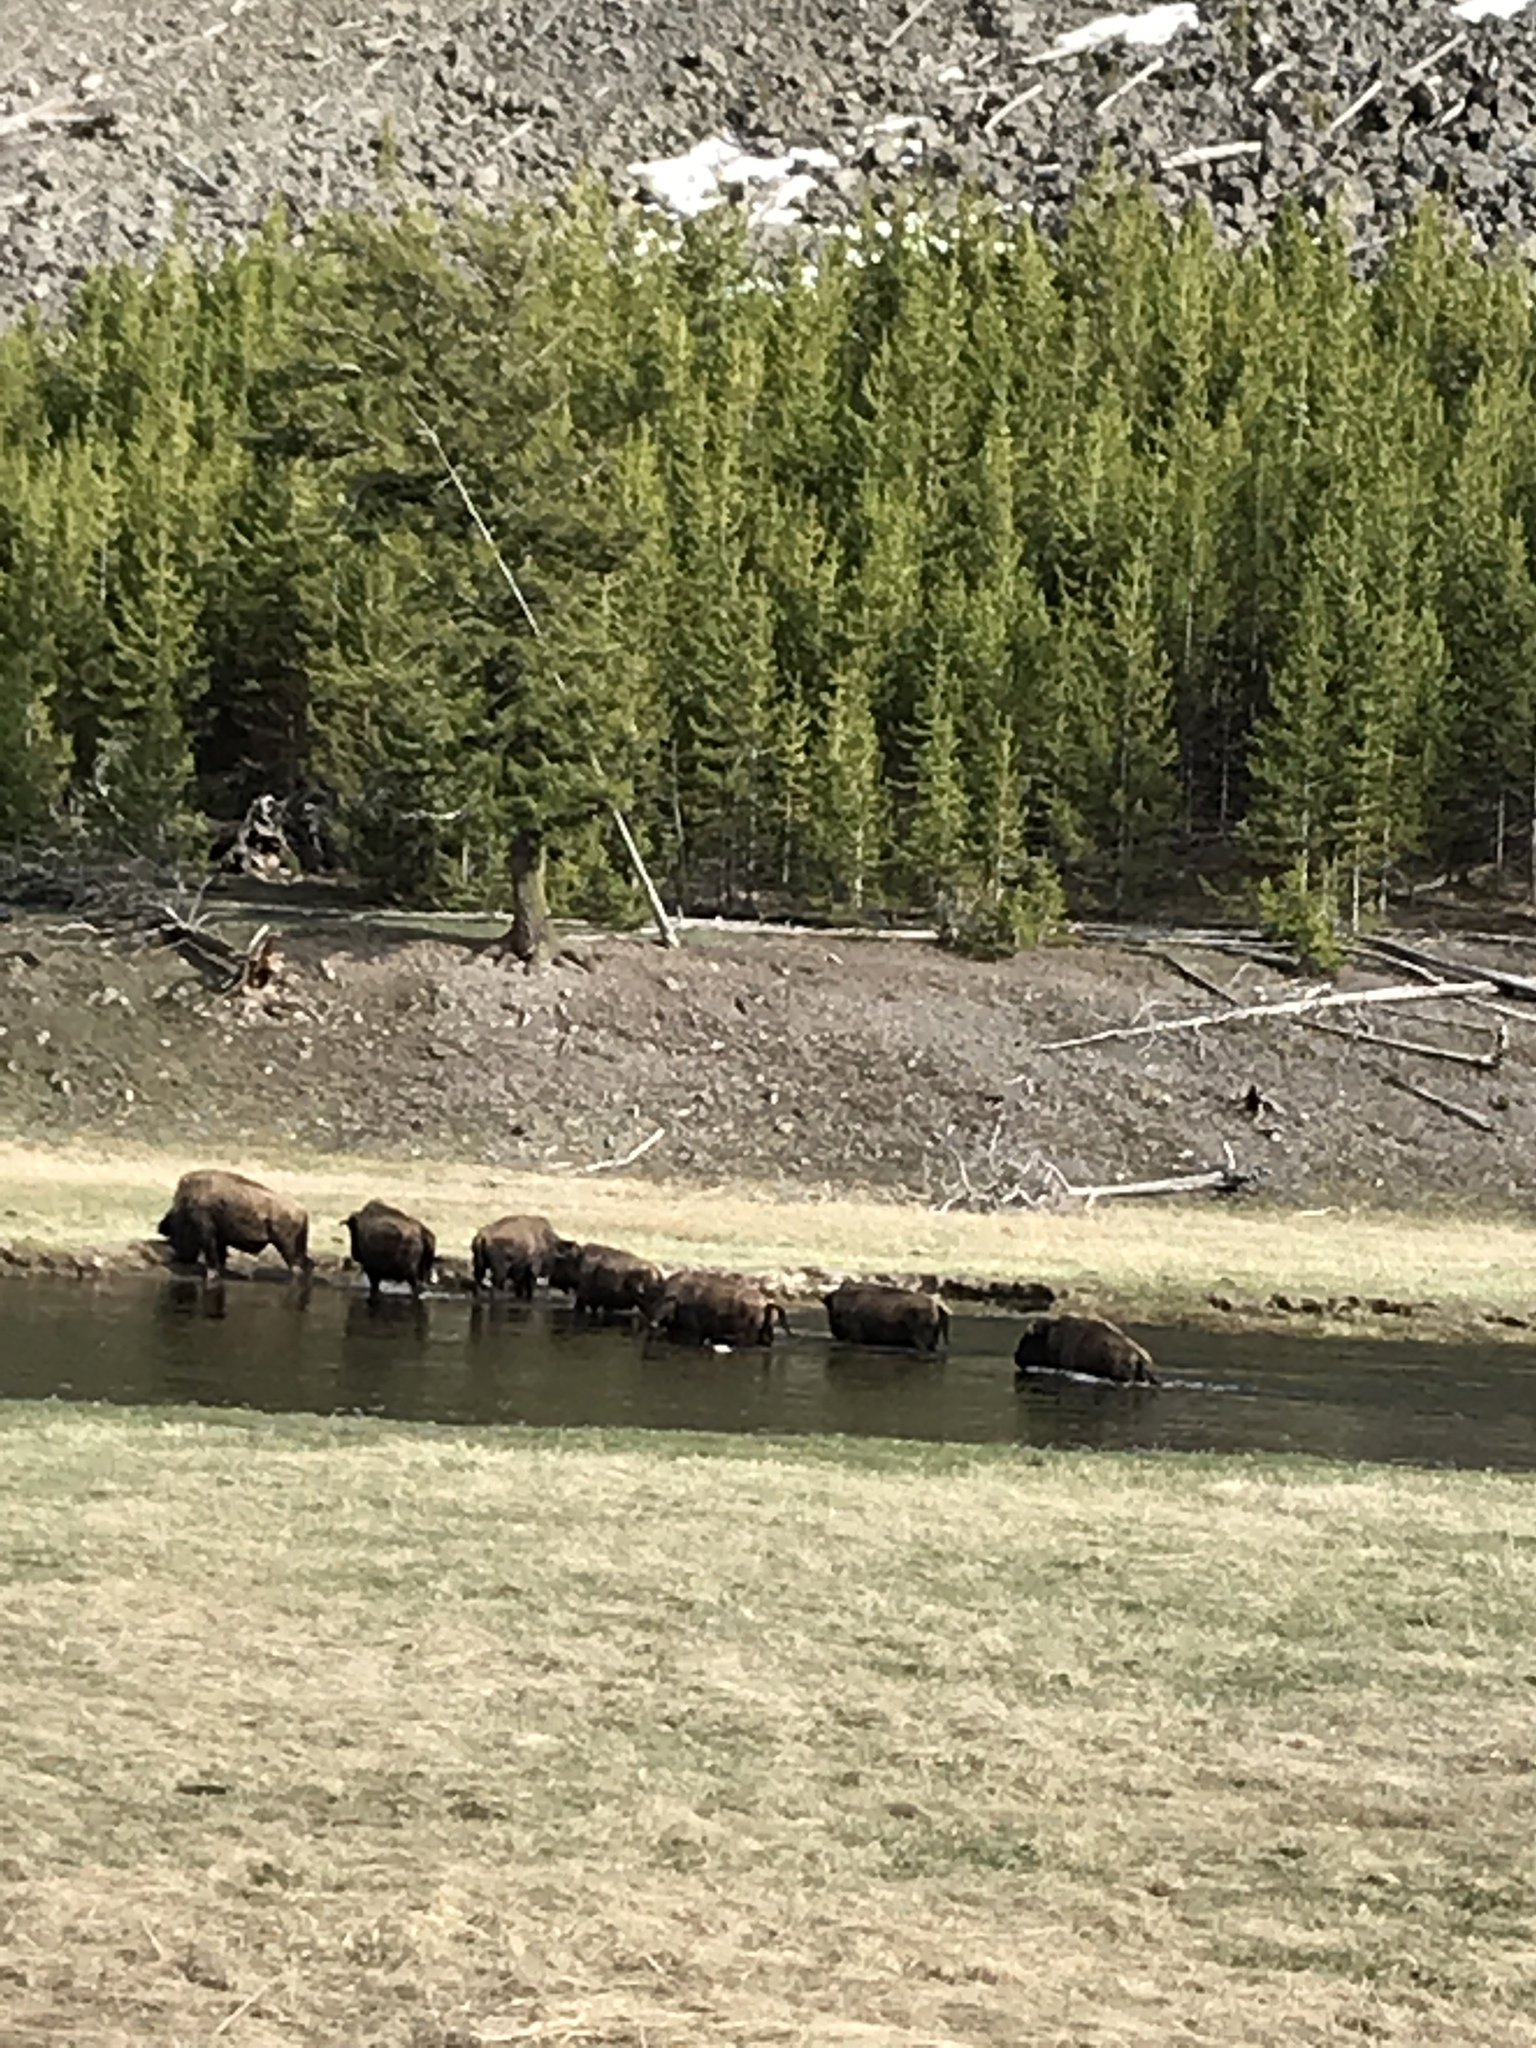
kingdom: Animalia
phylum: Chordata
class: Mammalia
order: Artiodactyla
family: Bovidae
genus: Bison
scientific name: Bison bison
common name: American bison
